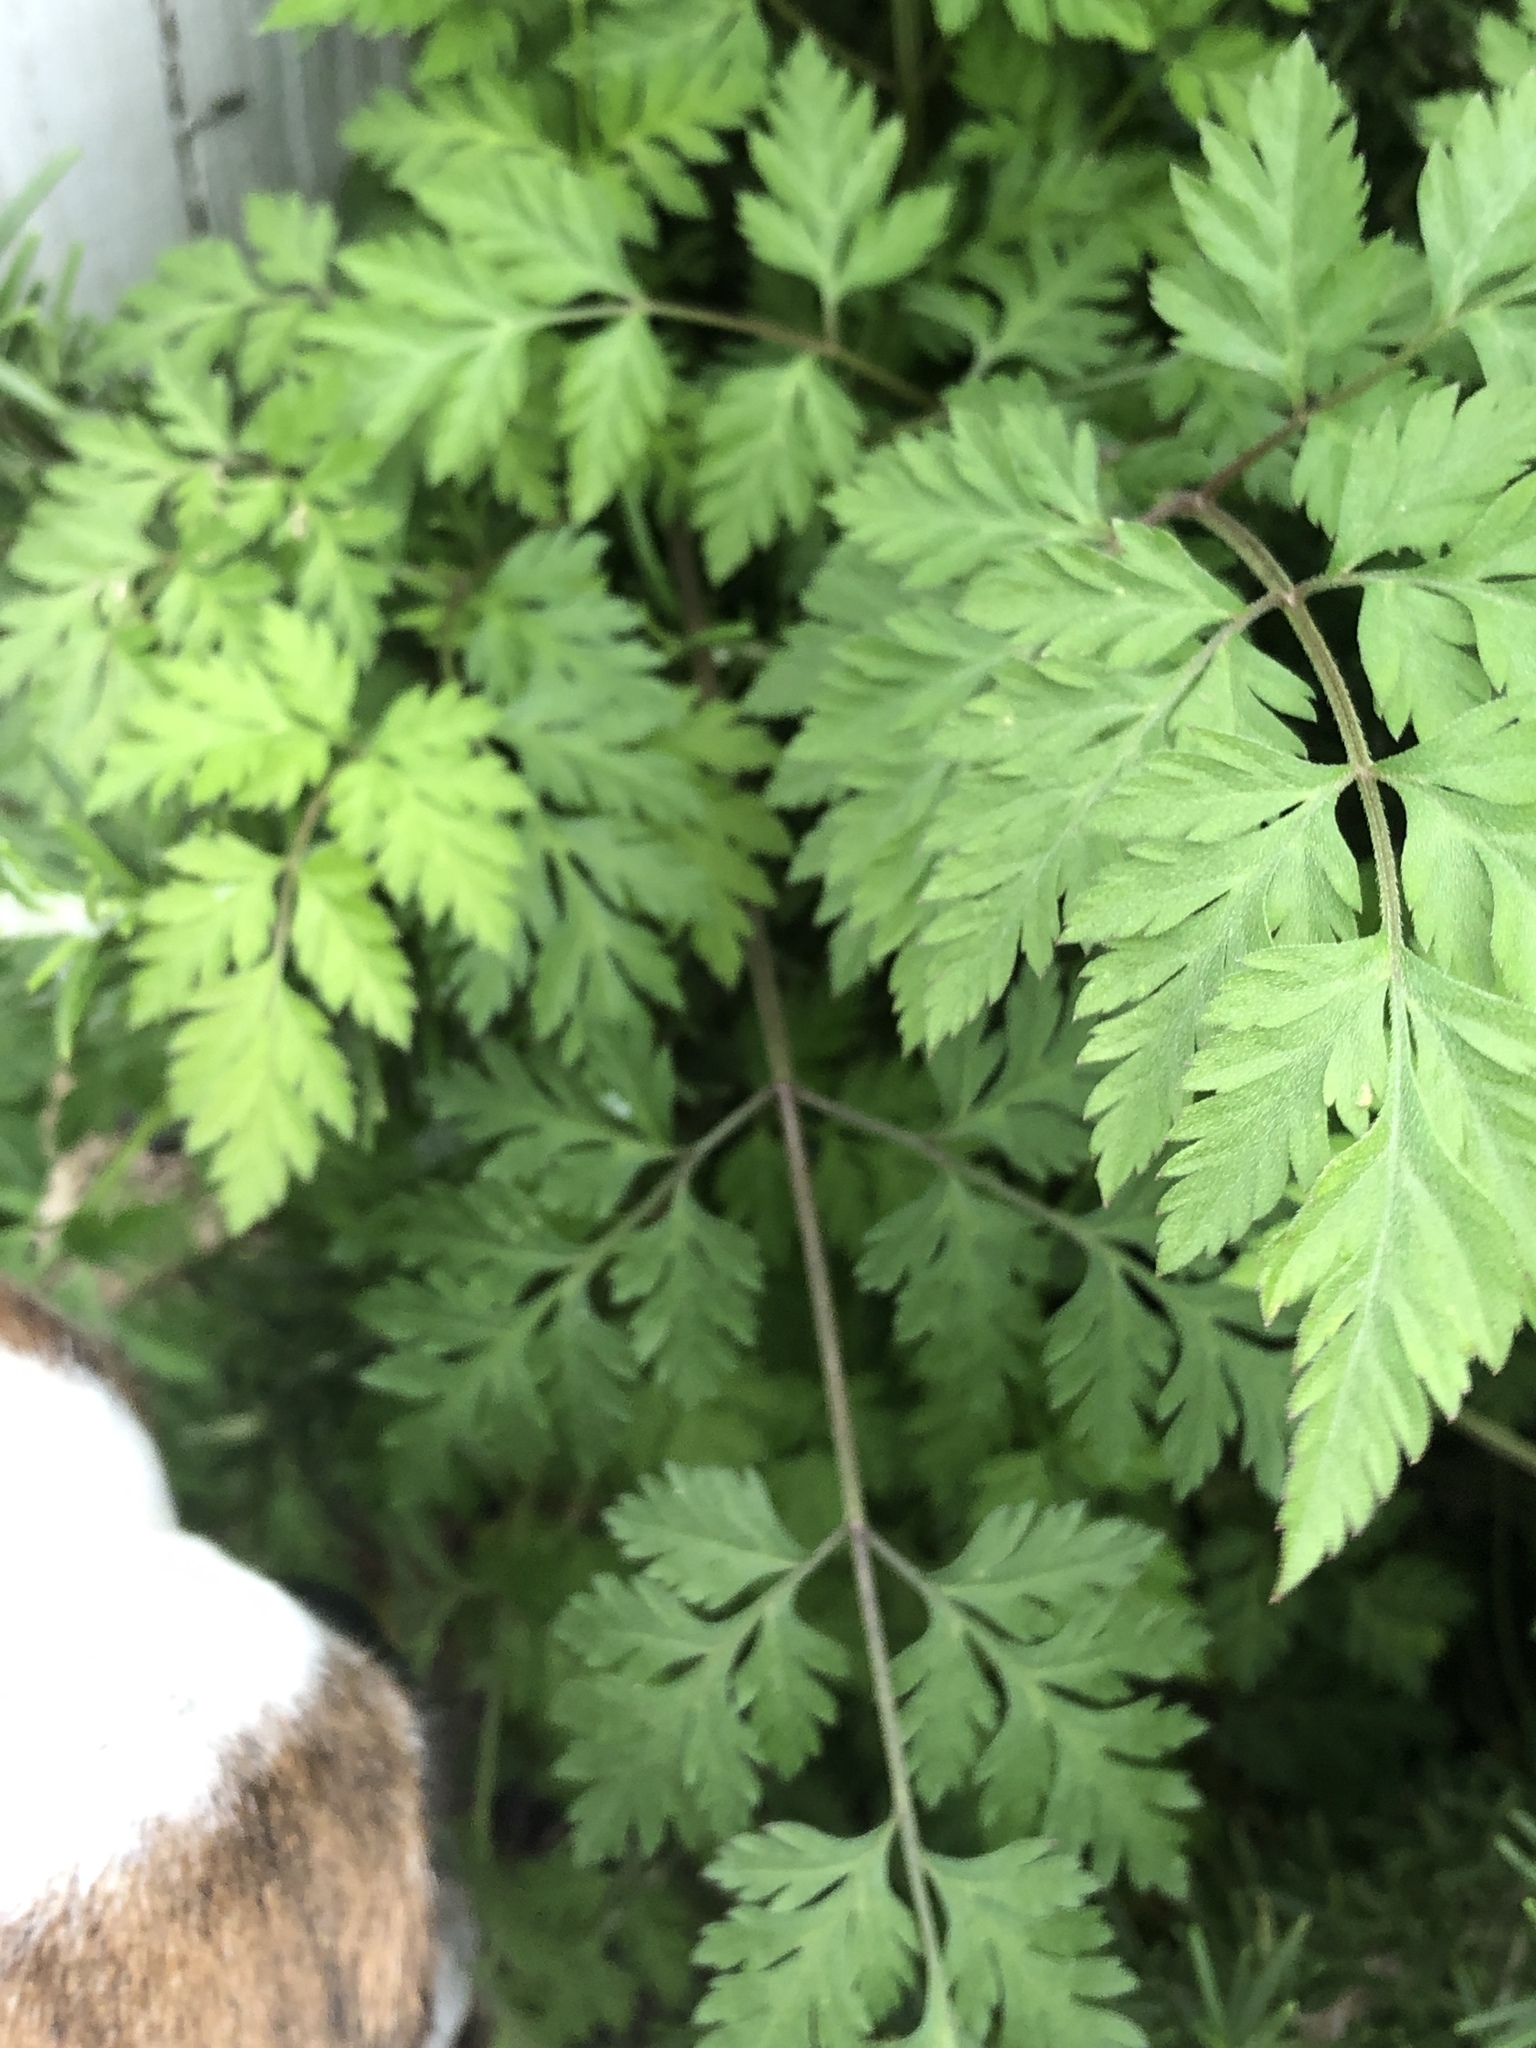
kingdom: Plantae
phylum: Tracheophyta
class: Magnoliopsida
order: Apiales
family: Apiaceae
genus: Torilis
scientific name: Torilis arvensis
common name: Spreading hedge-parsley
